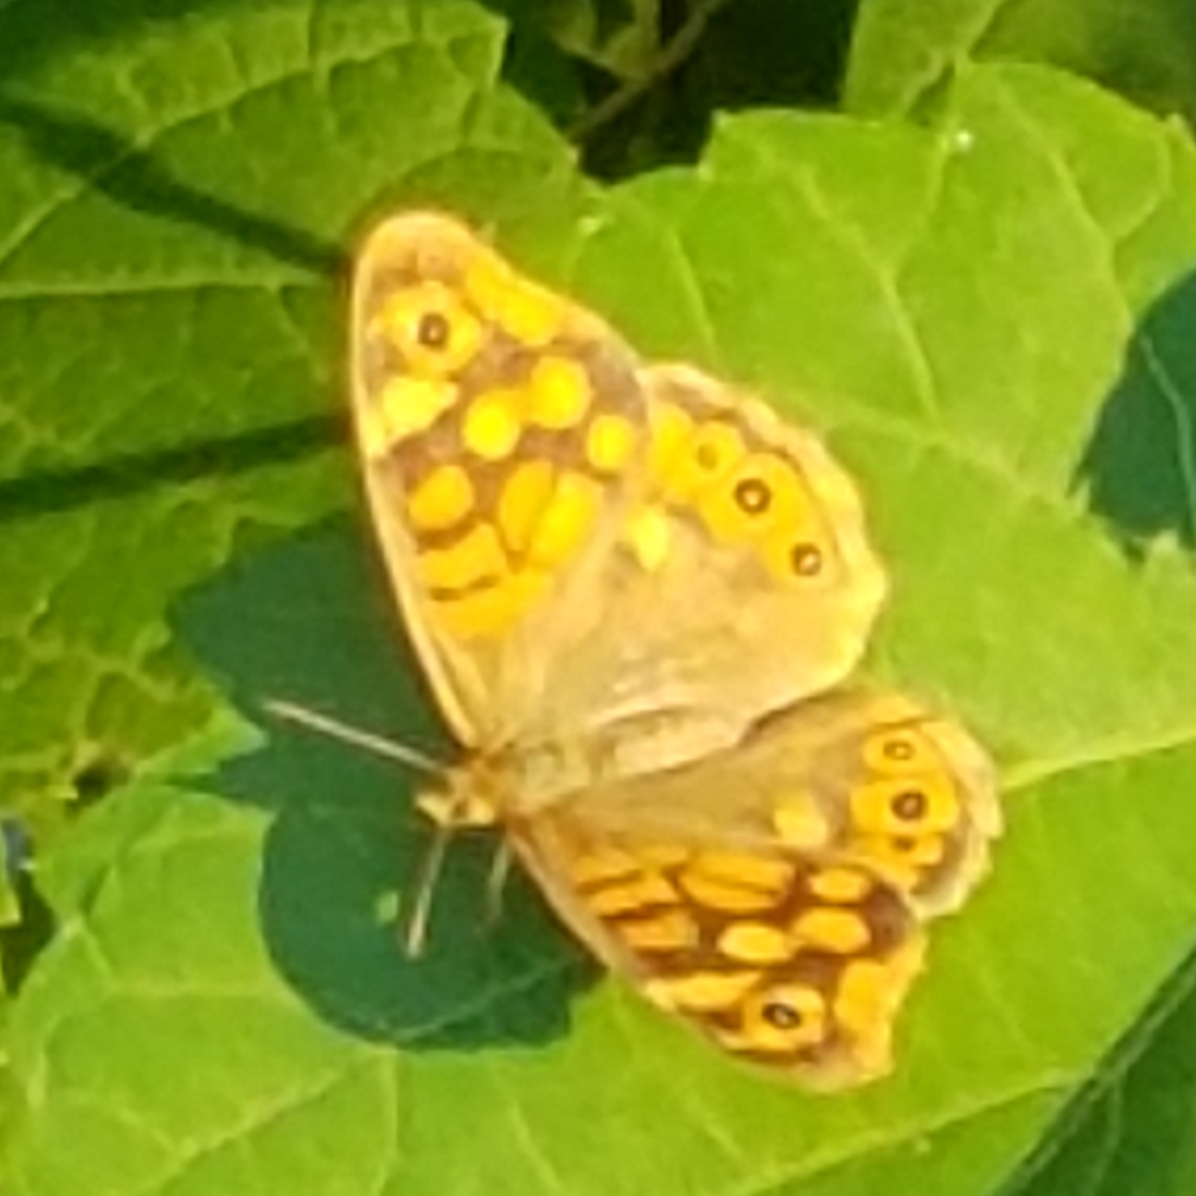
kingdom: Animalia
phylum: Arthropoda
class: Insecta
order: Lepidoptera
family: Nymphalidae
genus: Pararge
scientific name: Pararge aegeria
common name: Speckled wood
